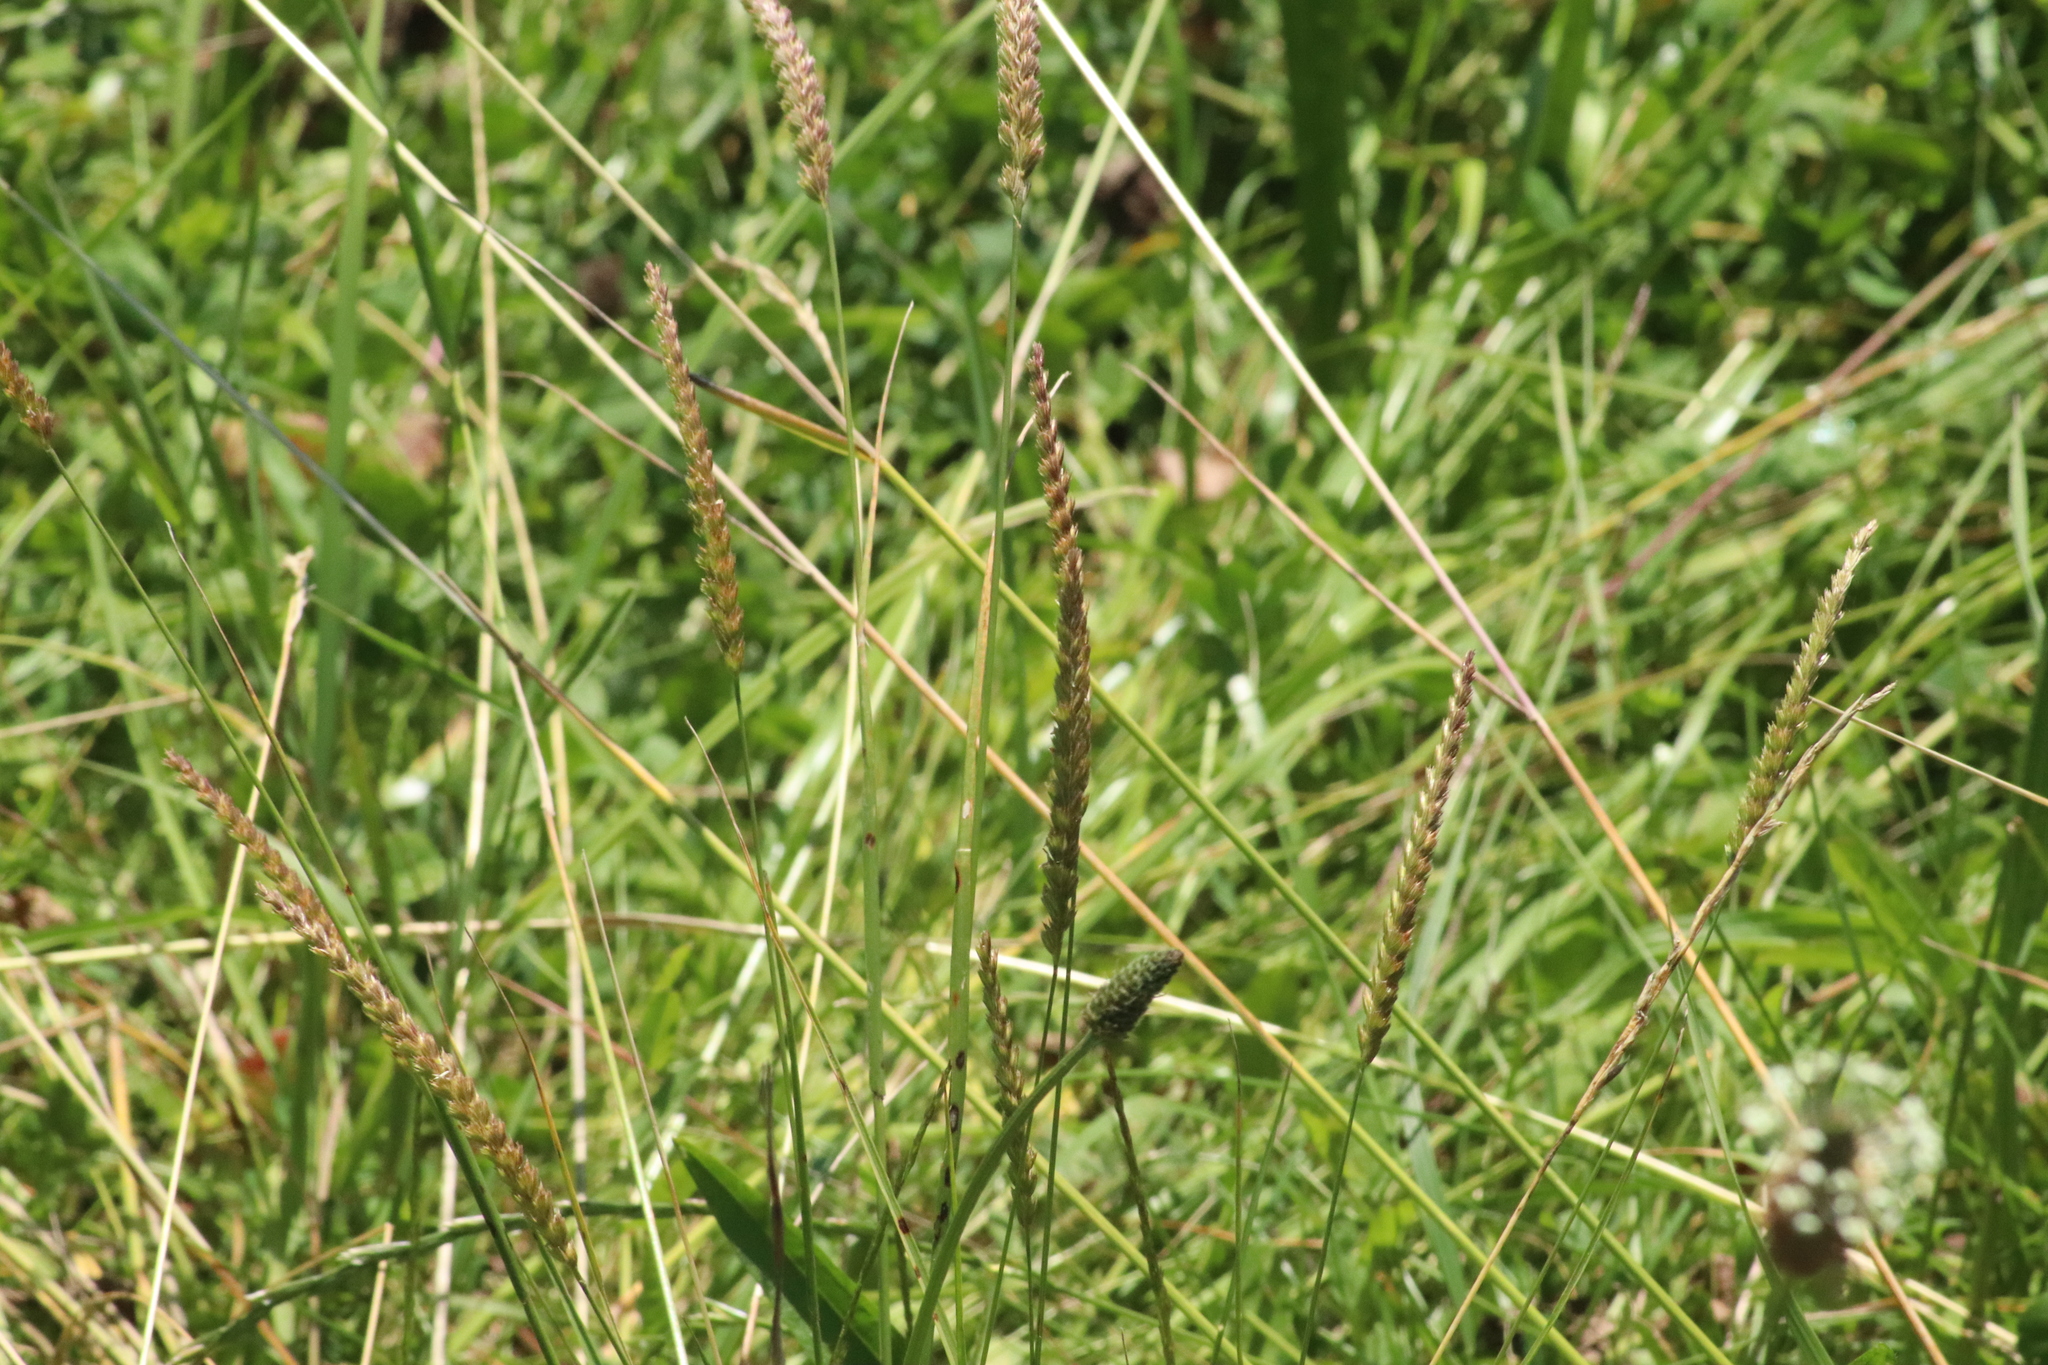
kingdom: Plantae
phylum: Tracheophyta
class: Liliopsida
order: Poales
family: Poaceae
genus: Cynosurus
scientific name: Cynosurus cristatus
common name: Crested dog's-tail
